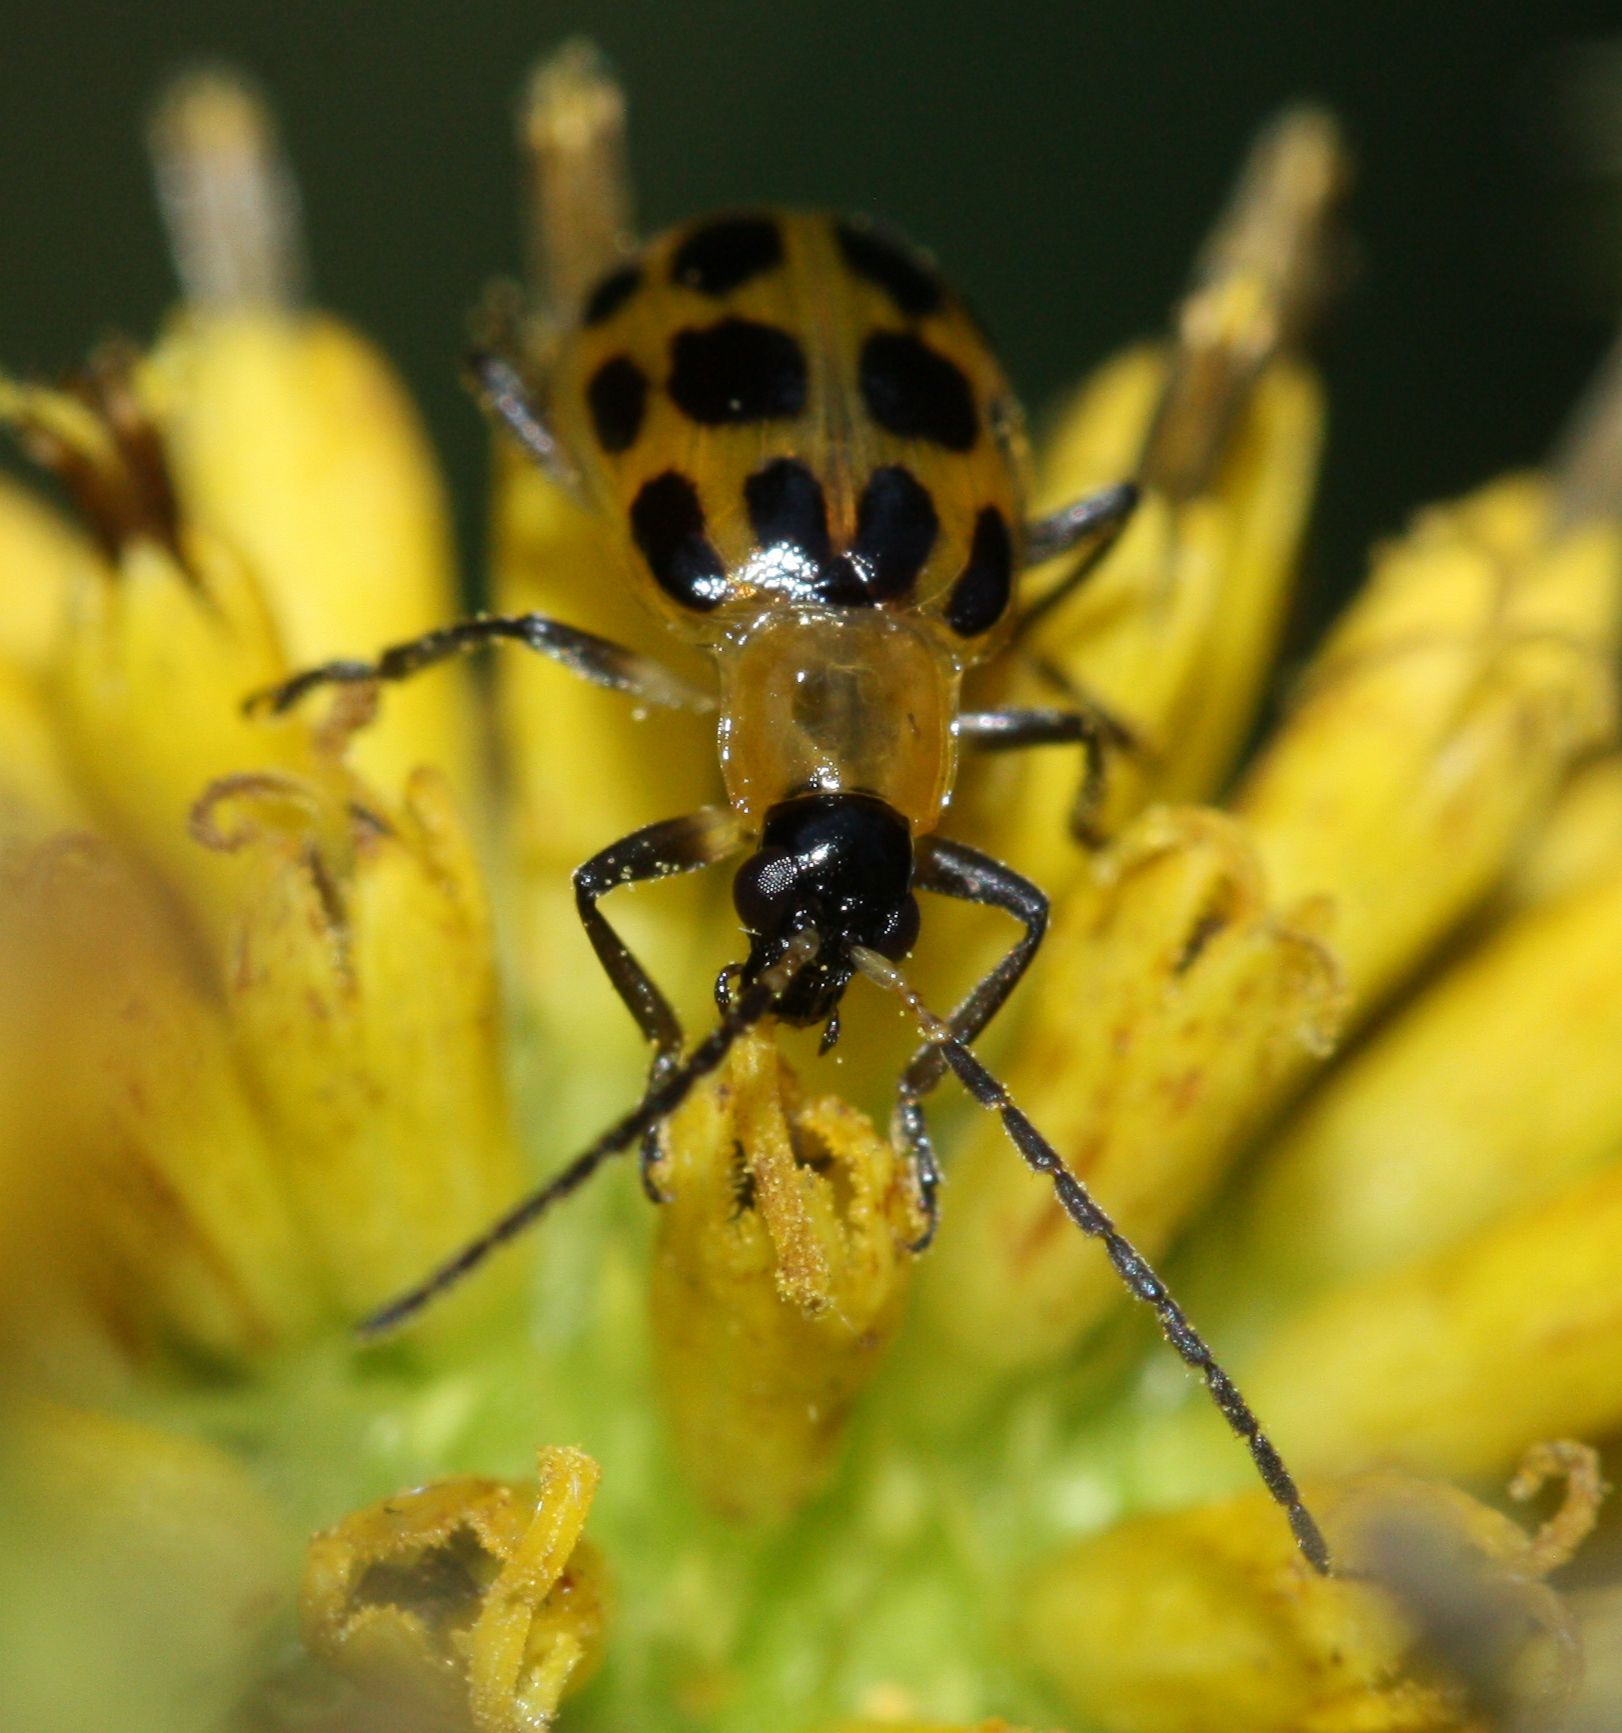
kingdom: Animalia
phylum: Arthropoda
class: Insecta
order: Coleoptera
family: Chrysomelidae
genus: Diabrotica
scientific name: Diabrotica undecimpunctata
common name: Spotted cucumber beetle
